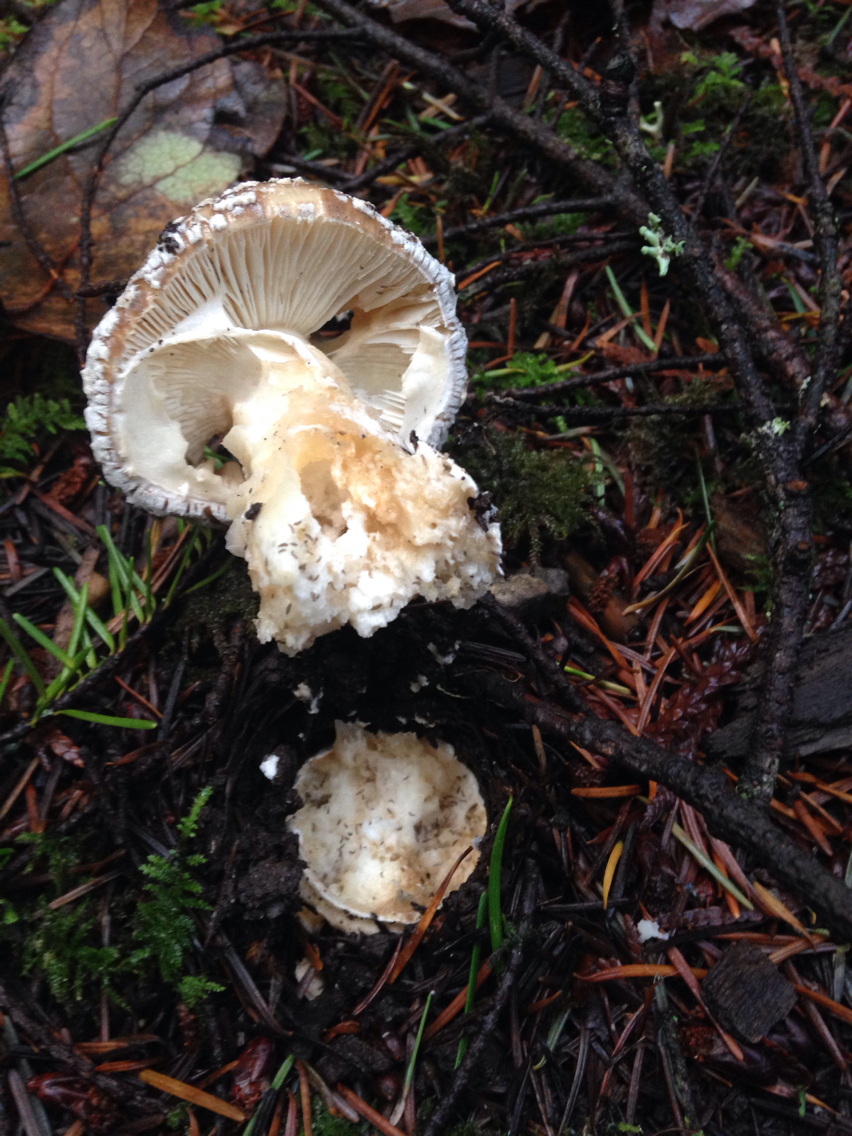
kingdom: Fungi
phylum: Basidiomycota
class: Agaricomycetes
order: Agaricales
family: Amanitaceae
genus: Amanita
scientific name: Amanita pantherina
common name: Panthercap
